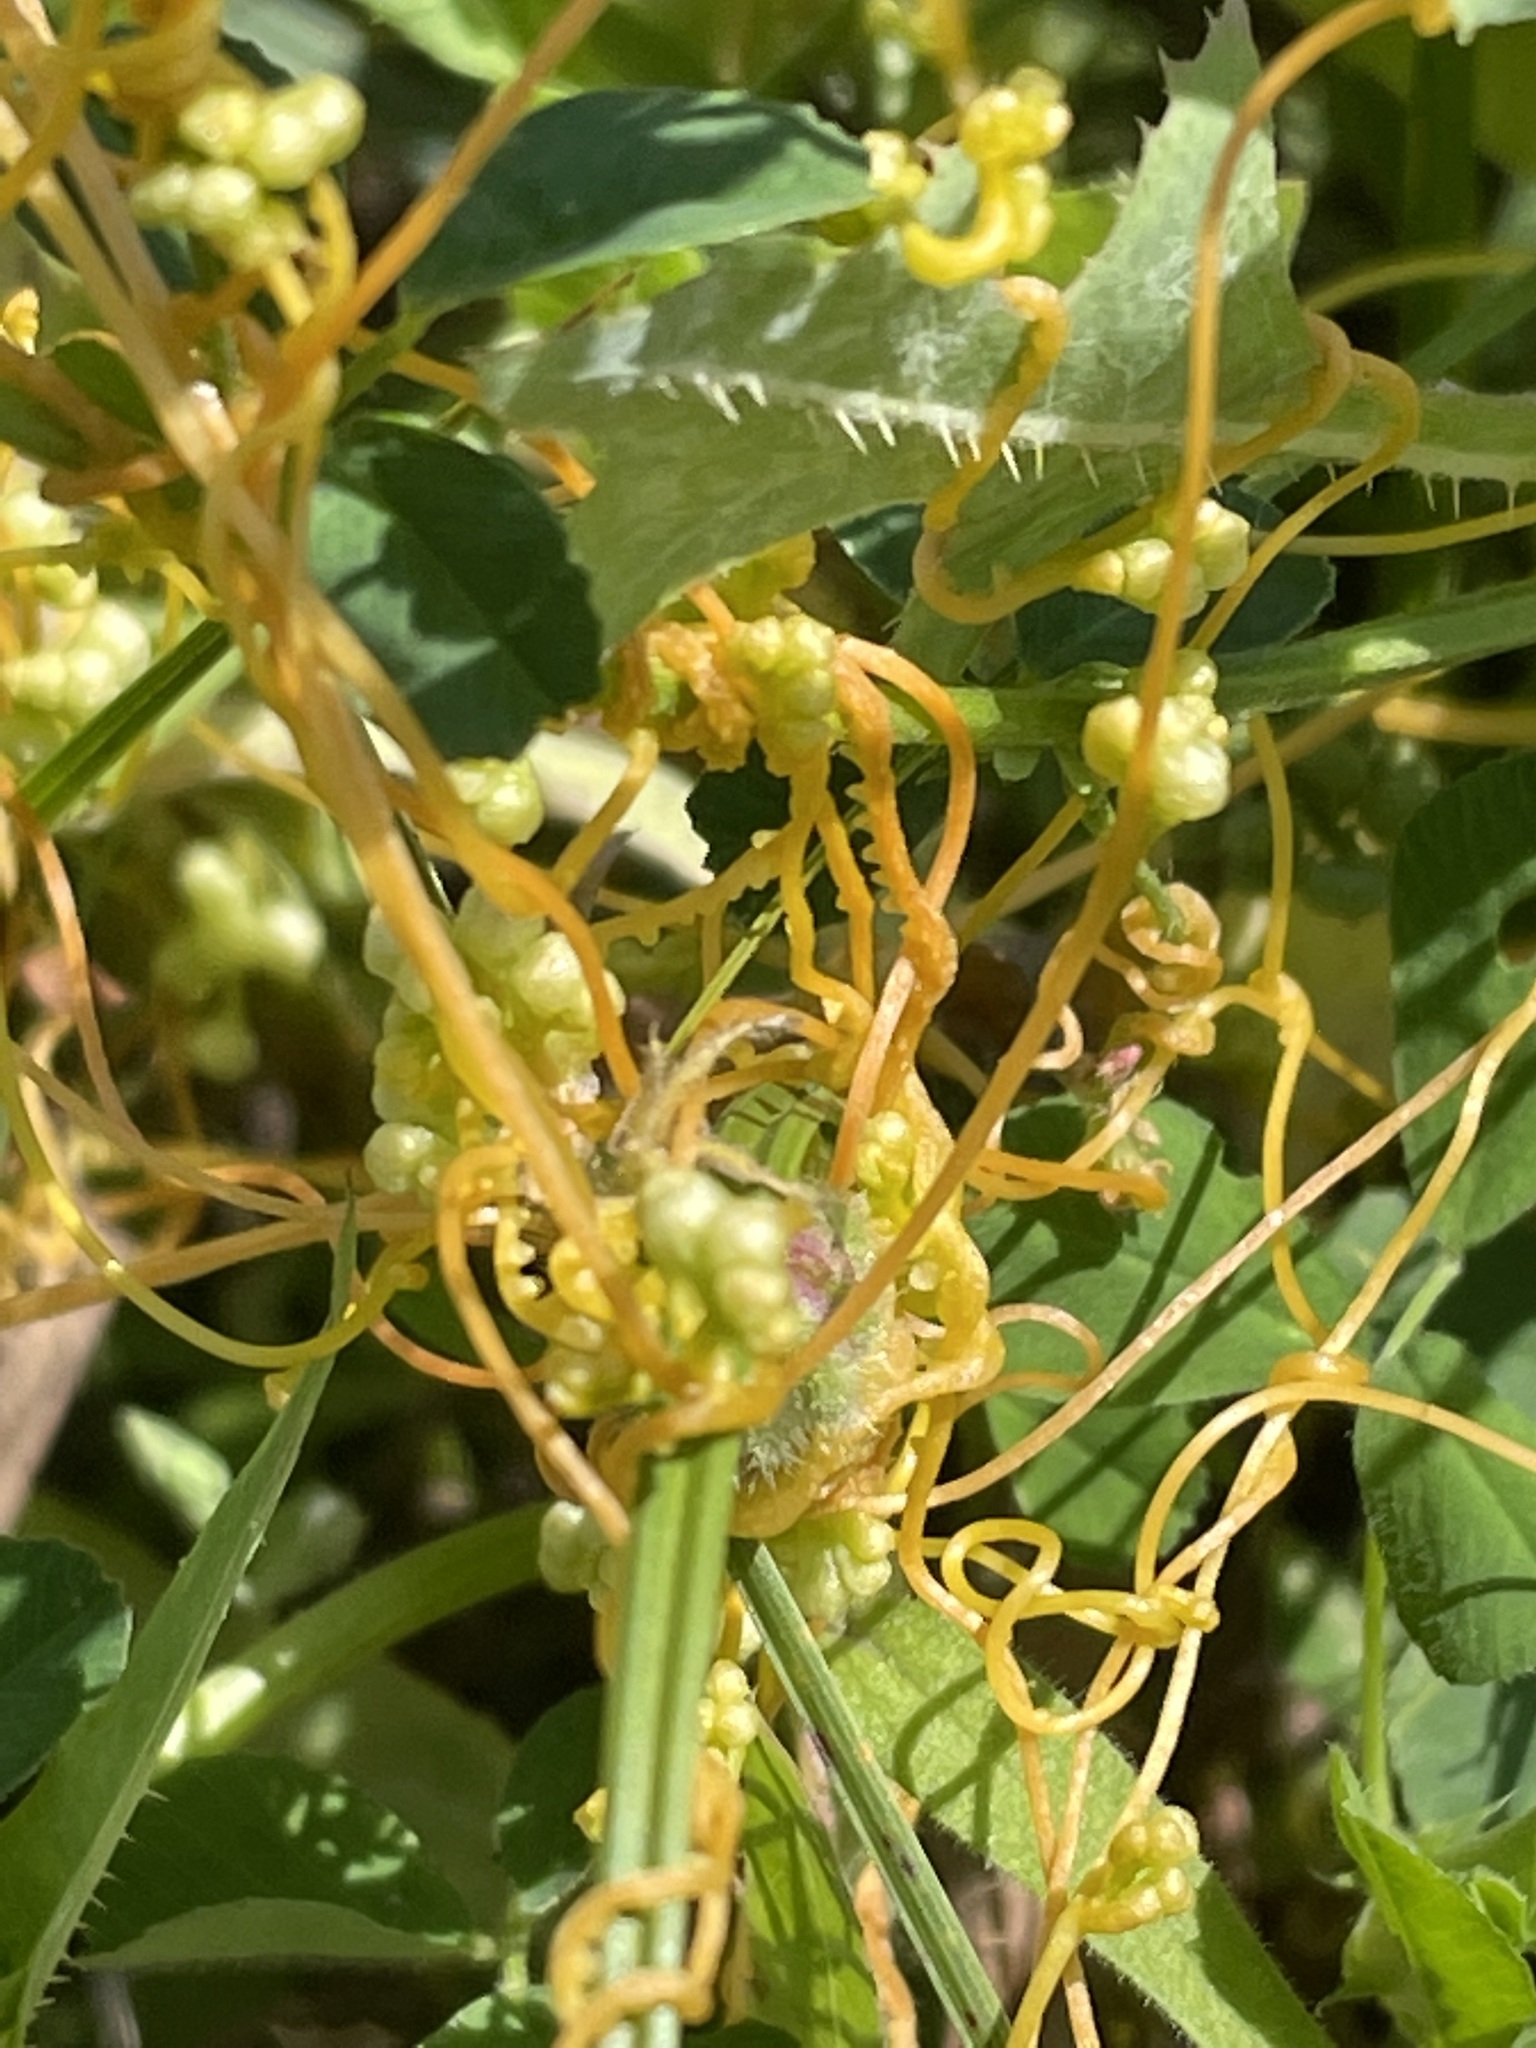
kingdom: Plantae
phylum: Tracheophyta
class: Magnoliopsida
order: Solanales
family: Convolvulaceae
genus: Cuscuta
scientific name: Cuscuta campestris
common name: Yellow dodder
